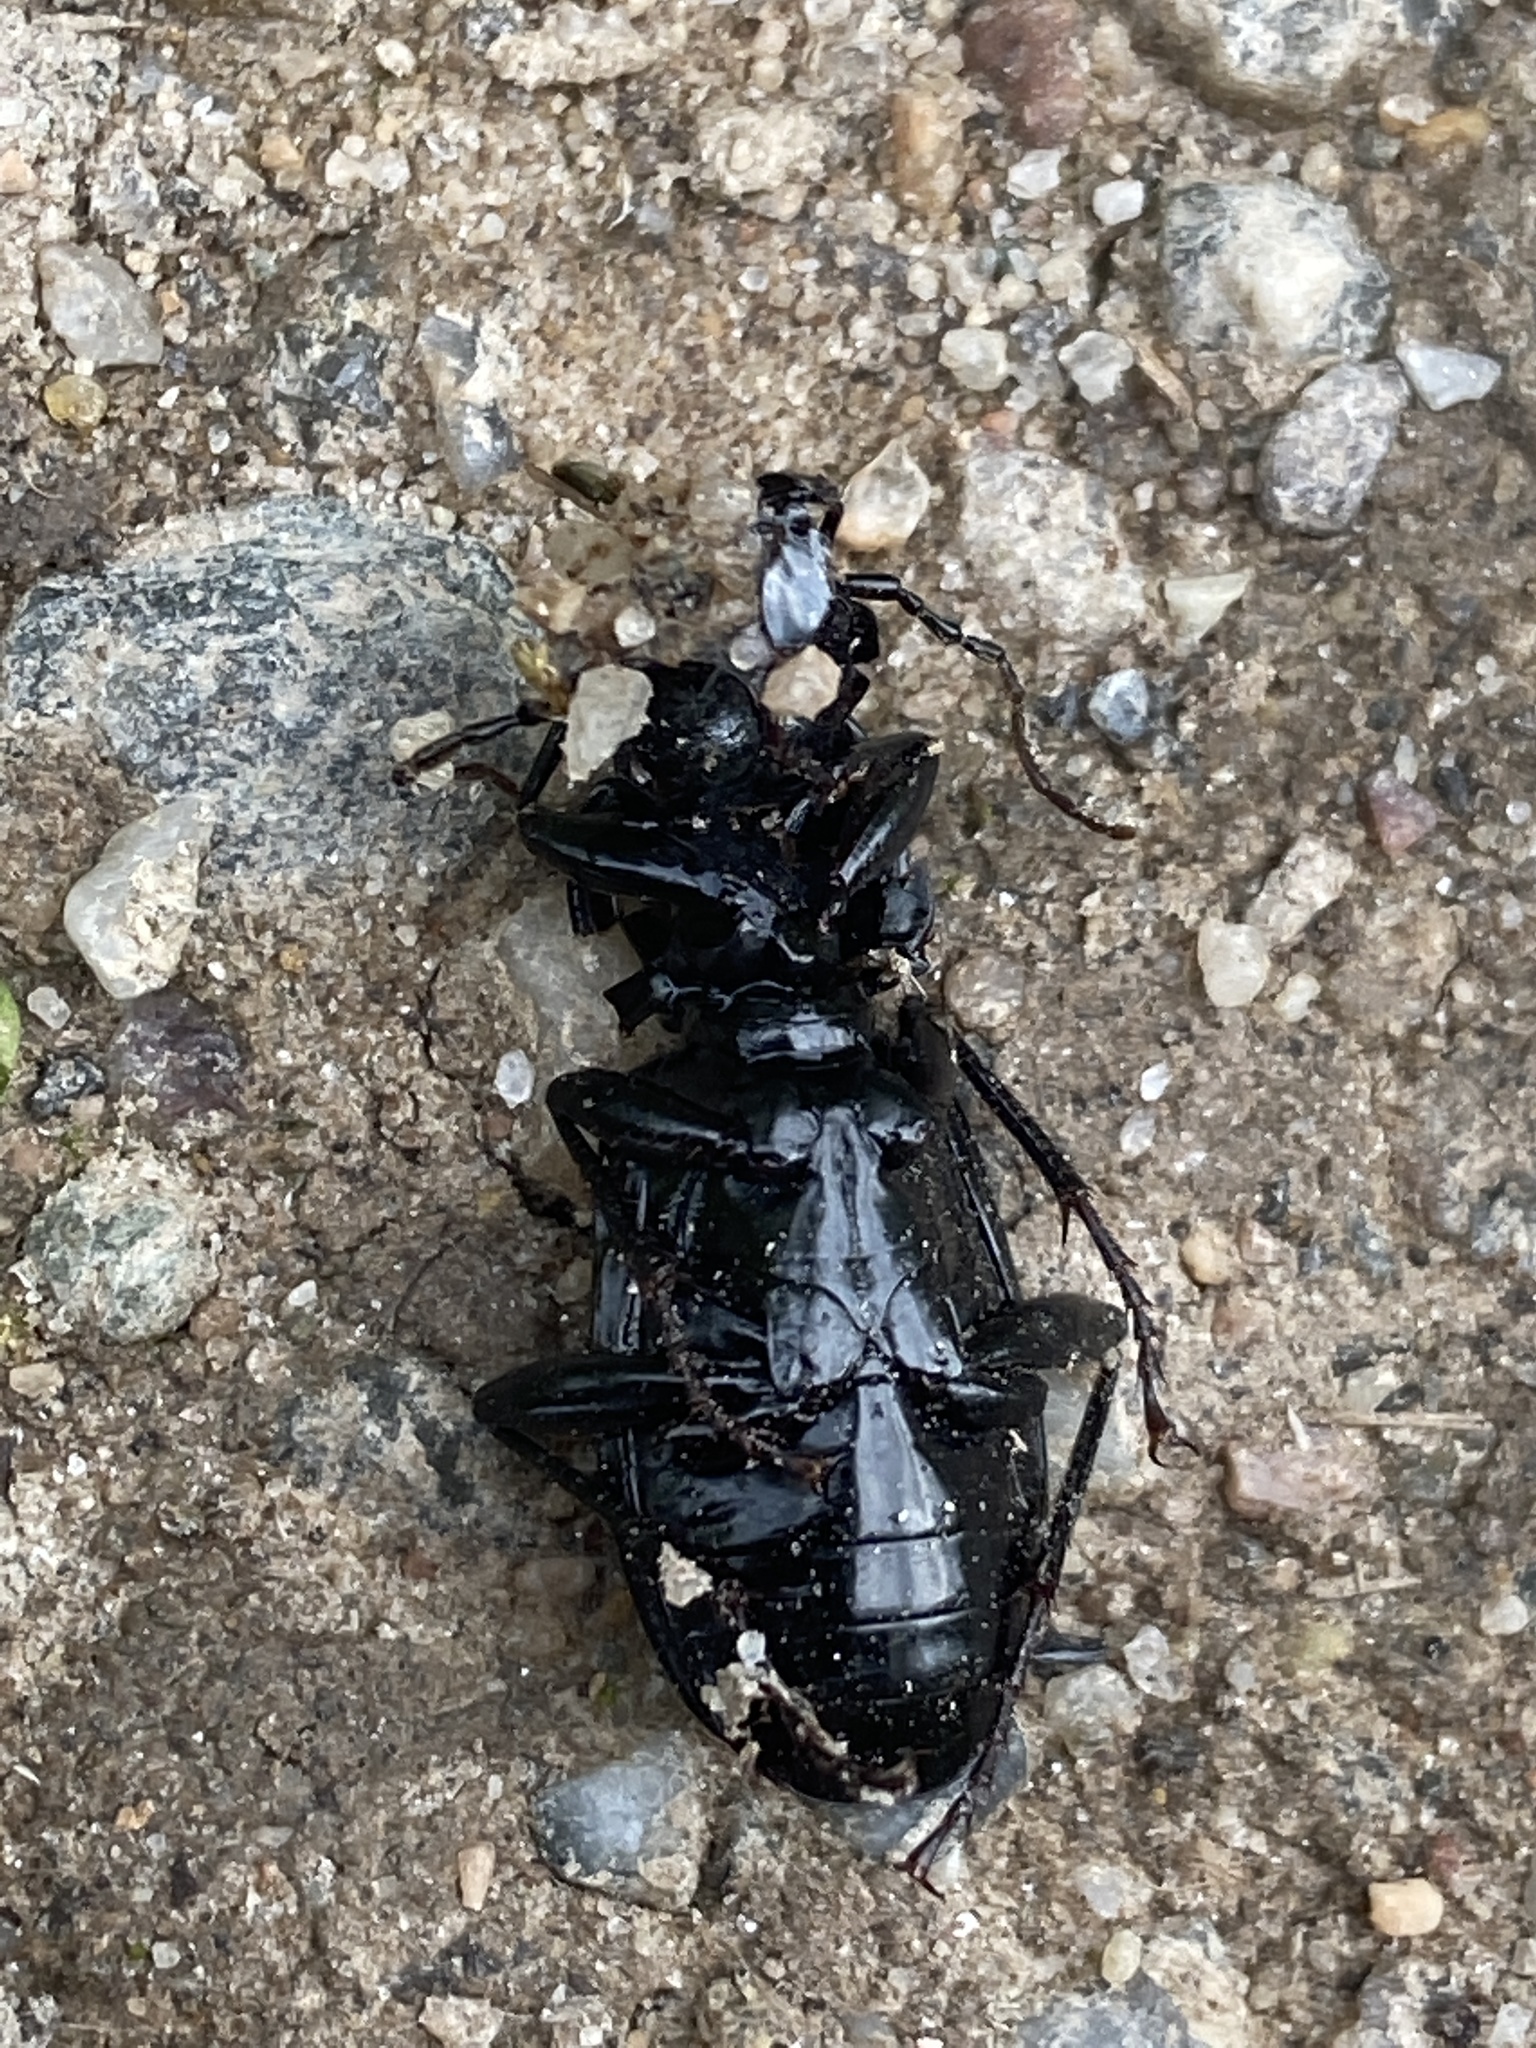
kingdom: Animalia
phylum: Arthropoda
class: Insecta
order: Coleoptera
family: Carabidae
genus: Pterostichus
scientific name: Pterostichus niger
